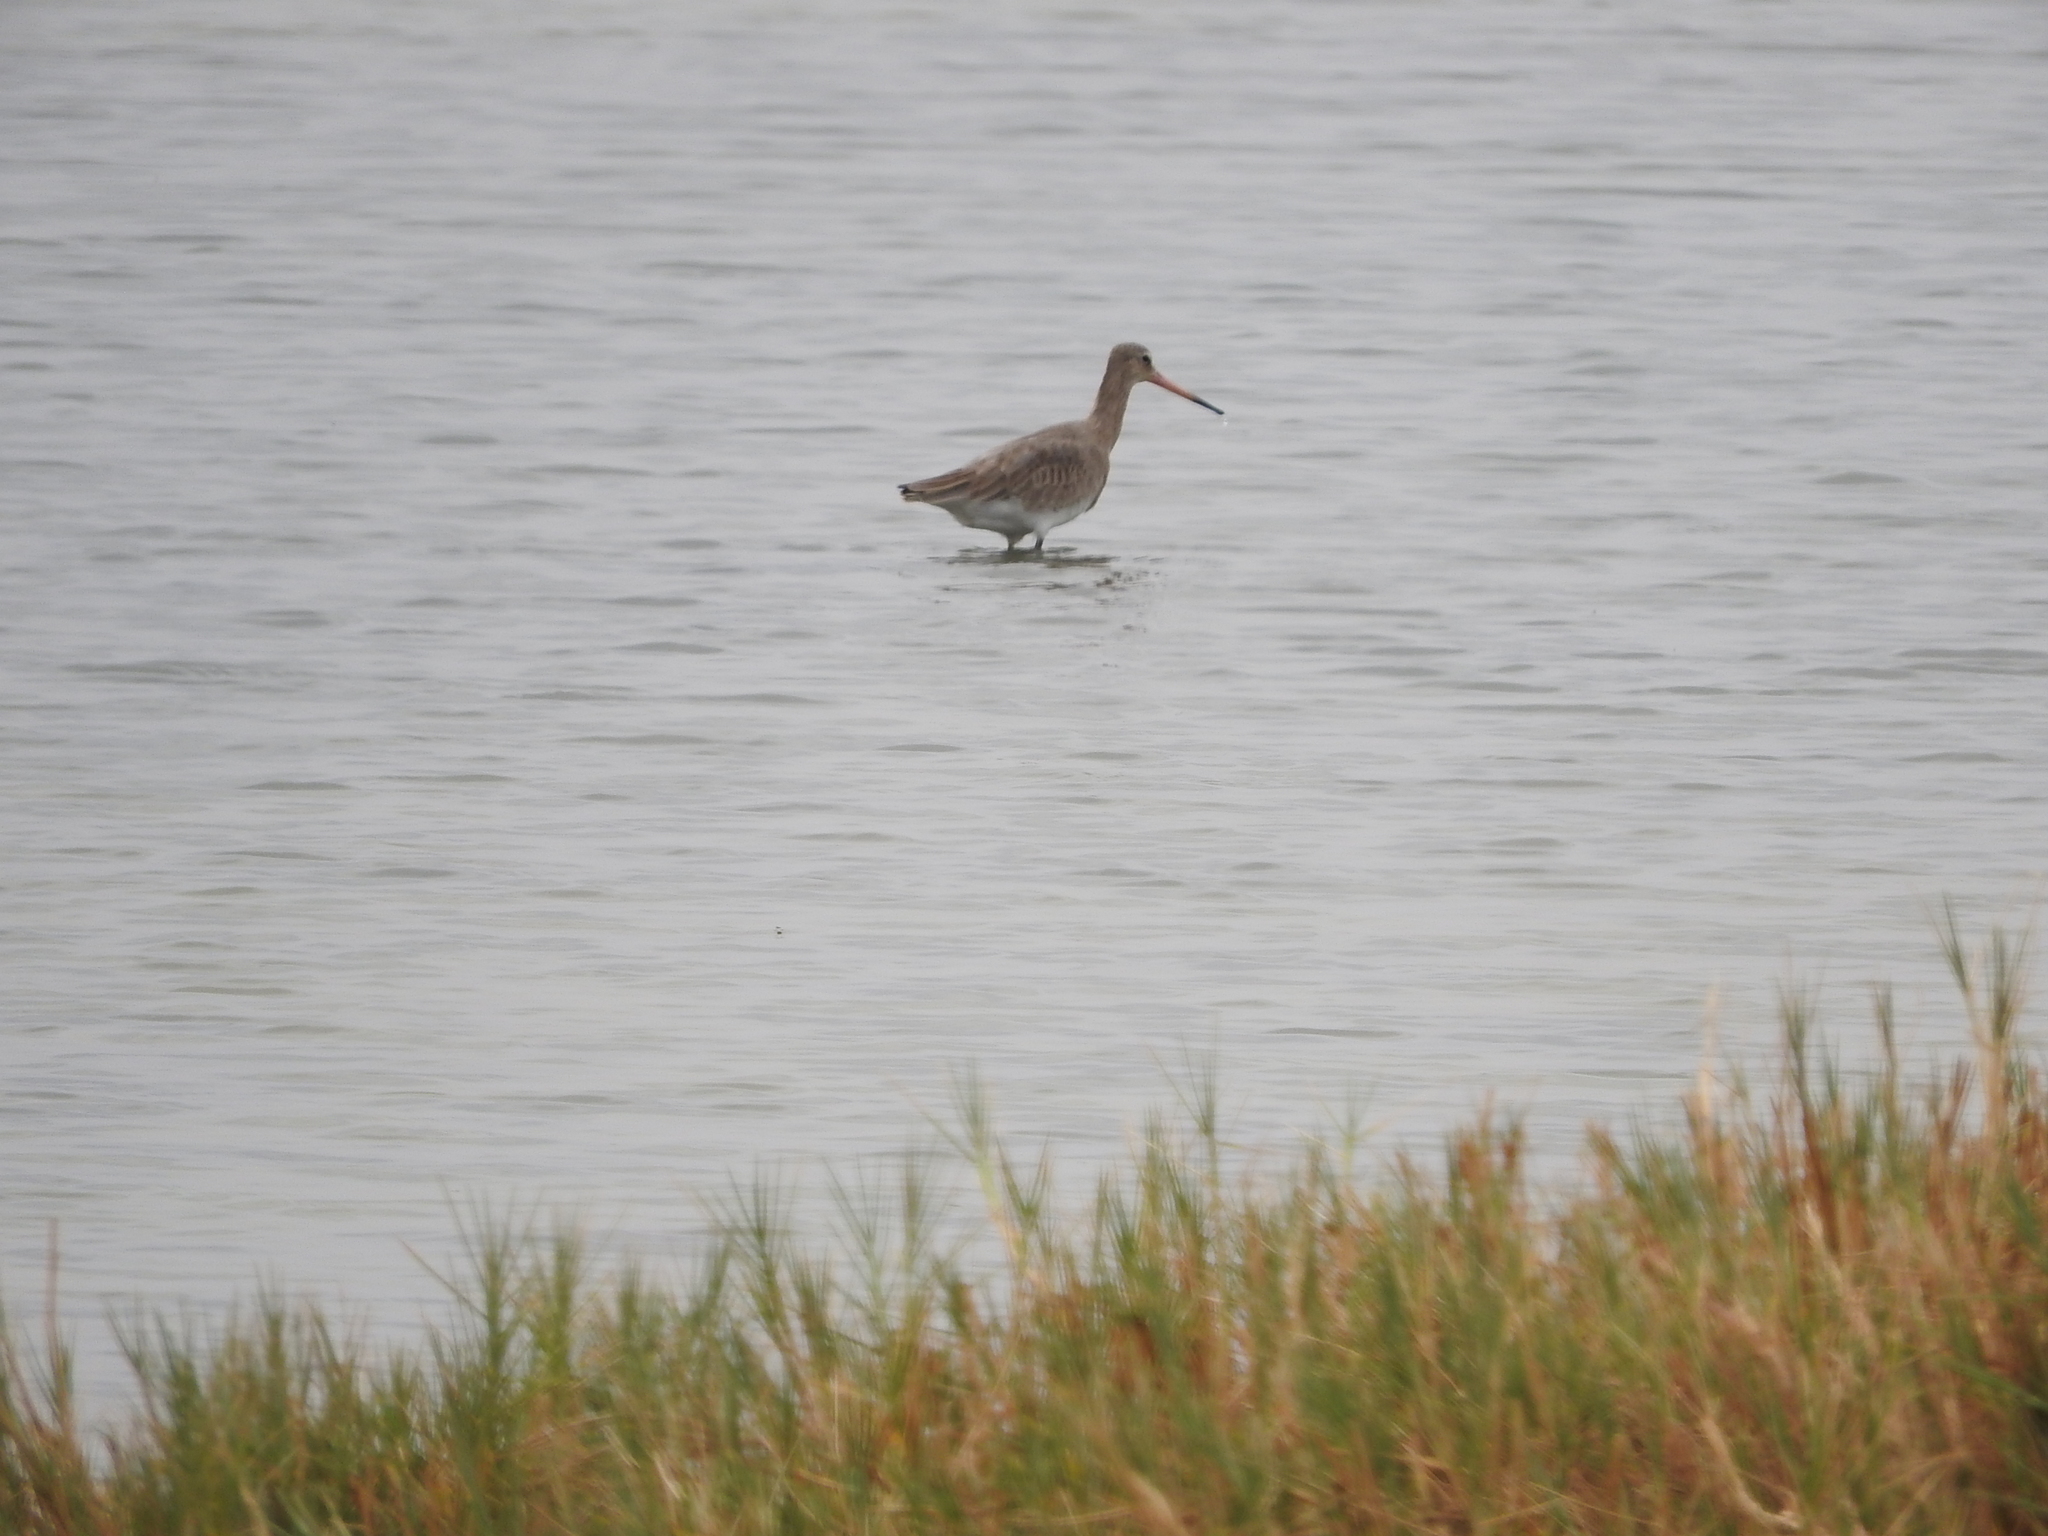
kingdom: Animalia
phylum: Chordata
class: Aves
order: Charadriiformes
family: Scolopacidae
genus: Limosa
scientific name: Limosa limosa
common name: Black-tailed godwit
